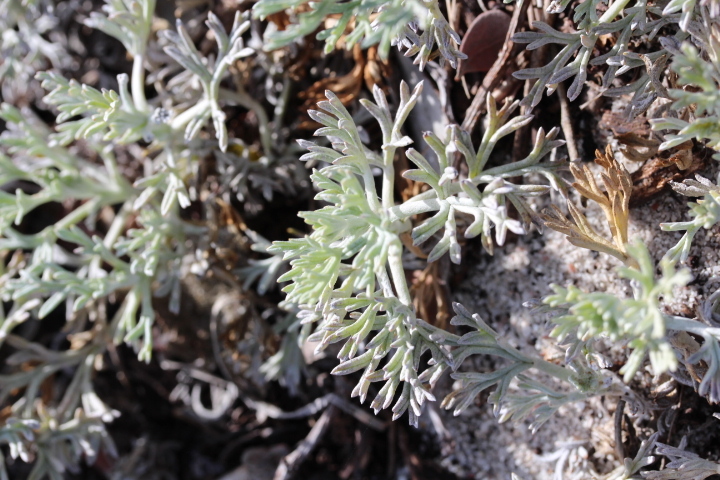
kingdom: Plantae
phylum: Tracheophyta
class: Magnoliopsida
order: Malvales
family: Neuradaceae
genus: Grielum
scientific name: Grielum grandiflorum
